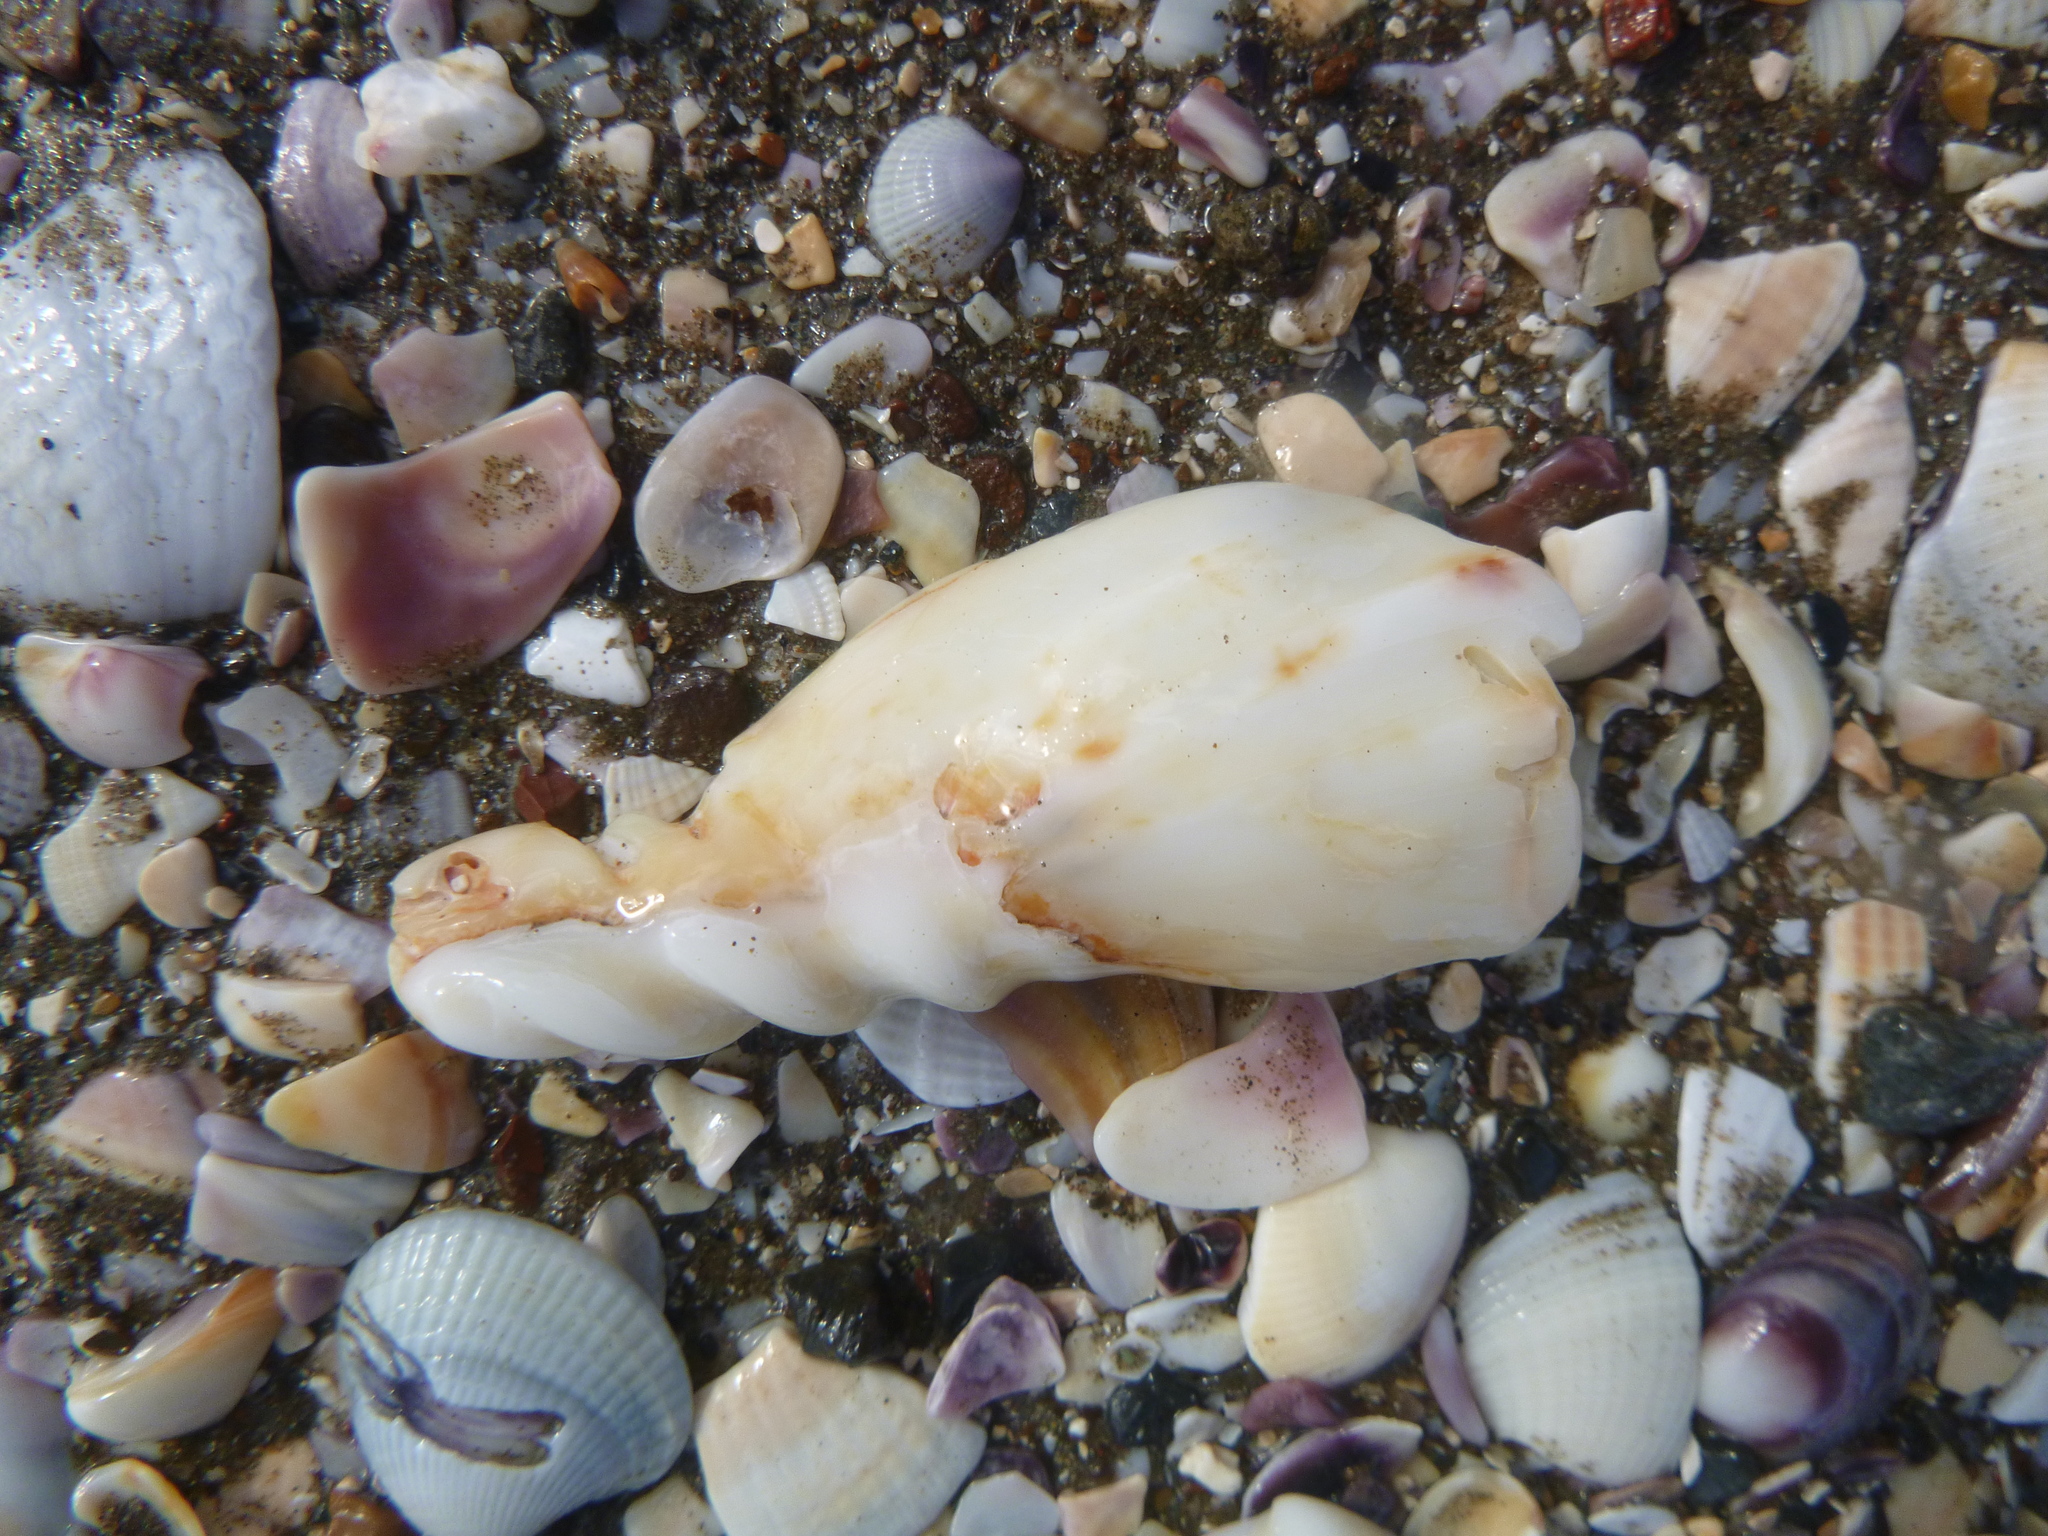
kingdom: Animalia
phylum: Mollusca
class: Gastropoda
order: Neogastropoda
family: Volutidae
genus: Alcithoe
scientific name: Alcithoe arabica
